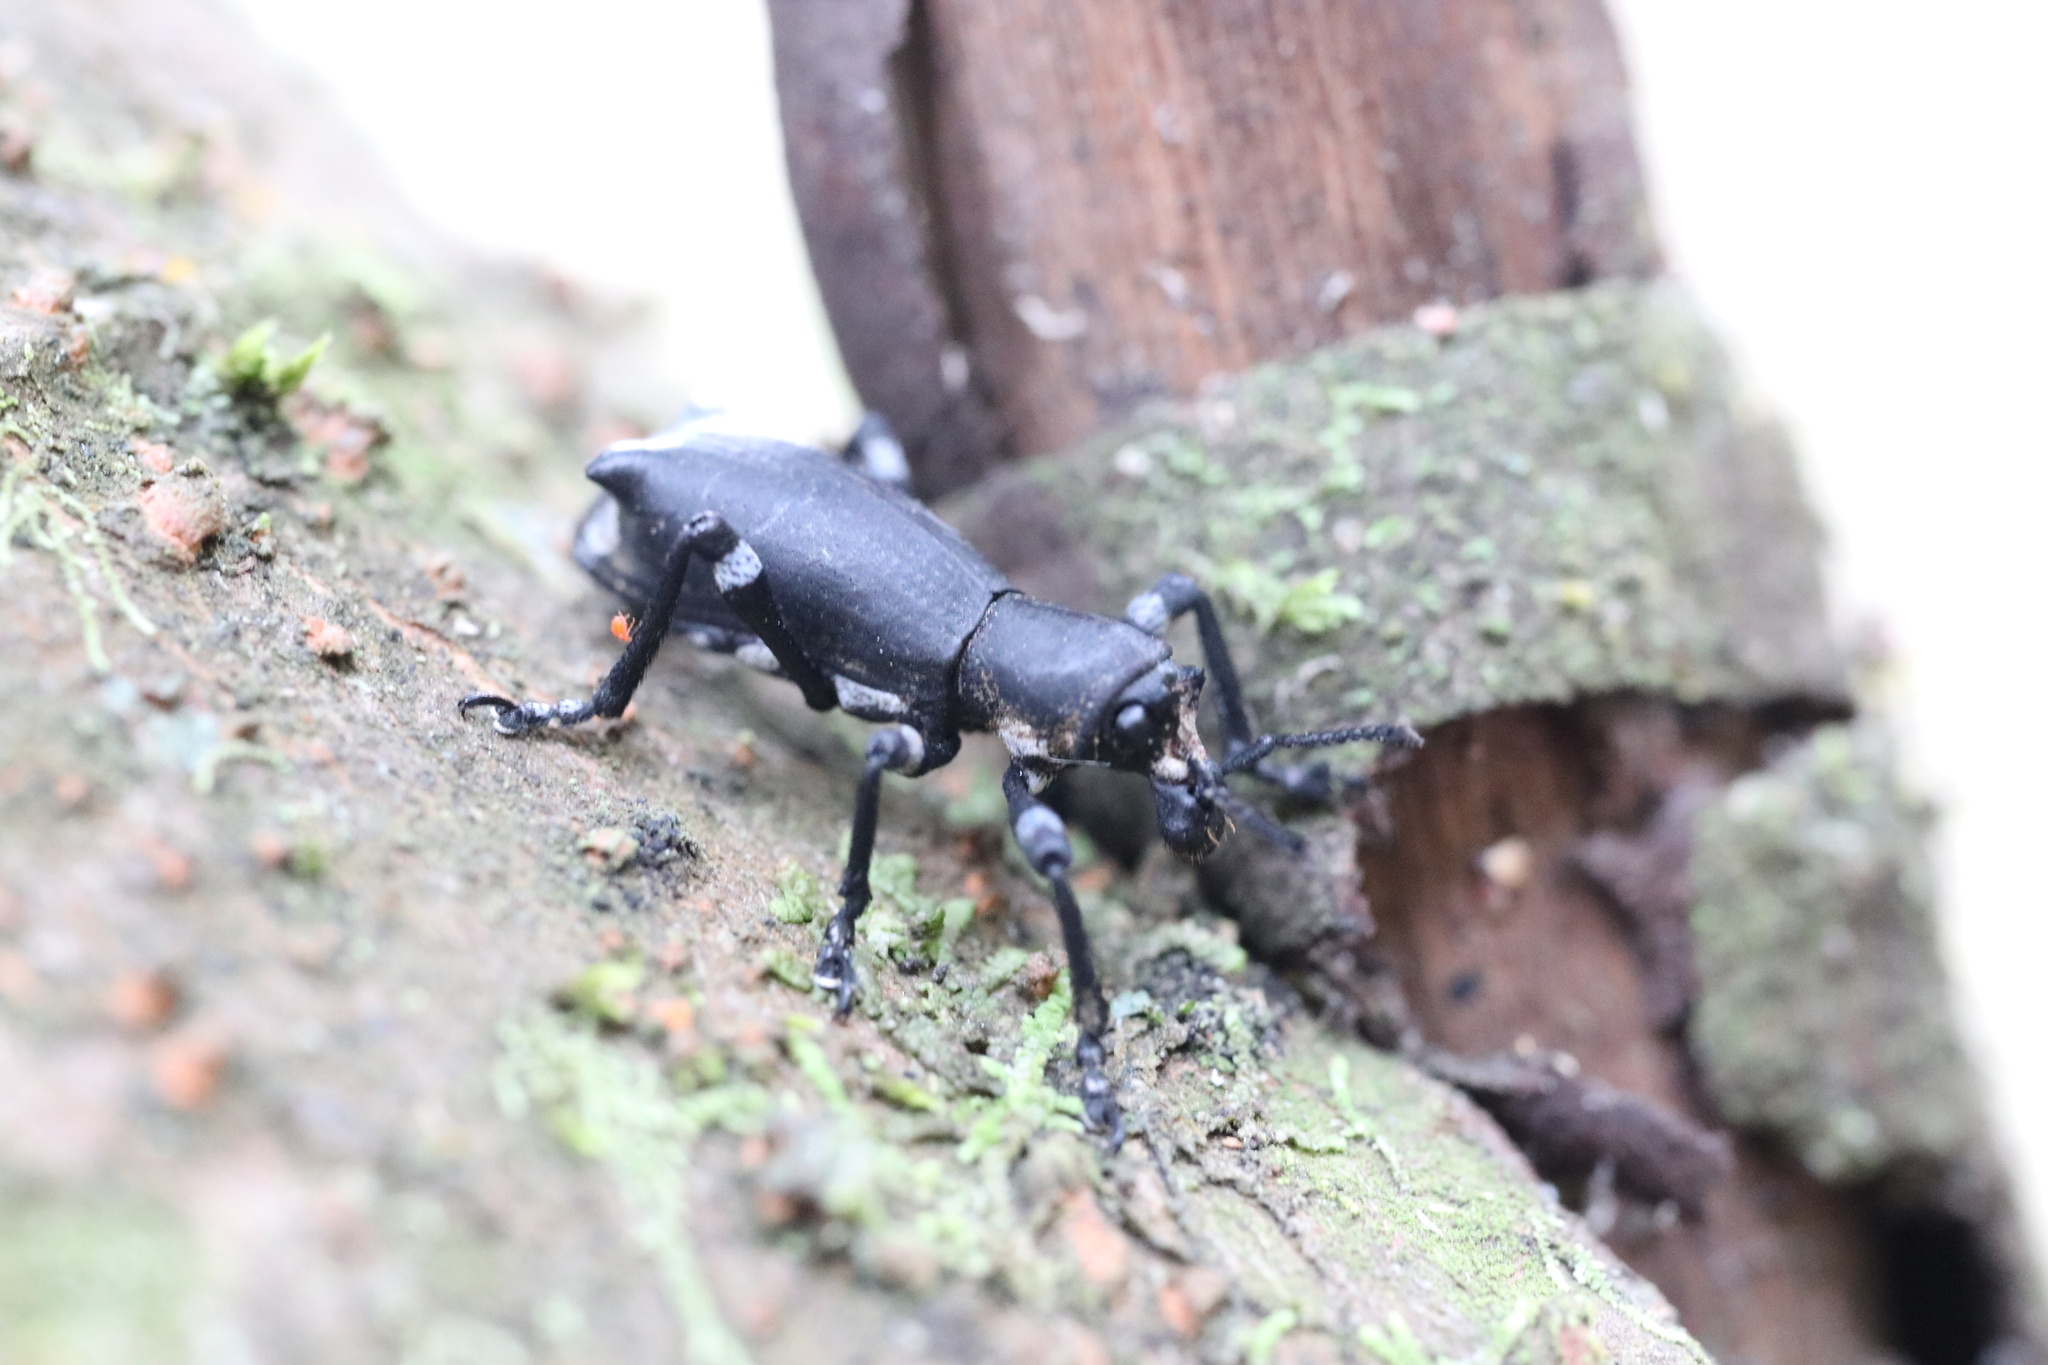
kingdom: Animalia
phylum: Arthropoda
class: Insecta
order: Coleoptera
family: Curculionidae
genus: Aegorhinus
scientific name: Aegorhinus
